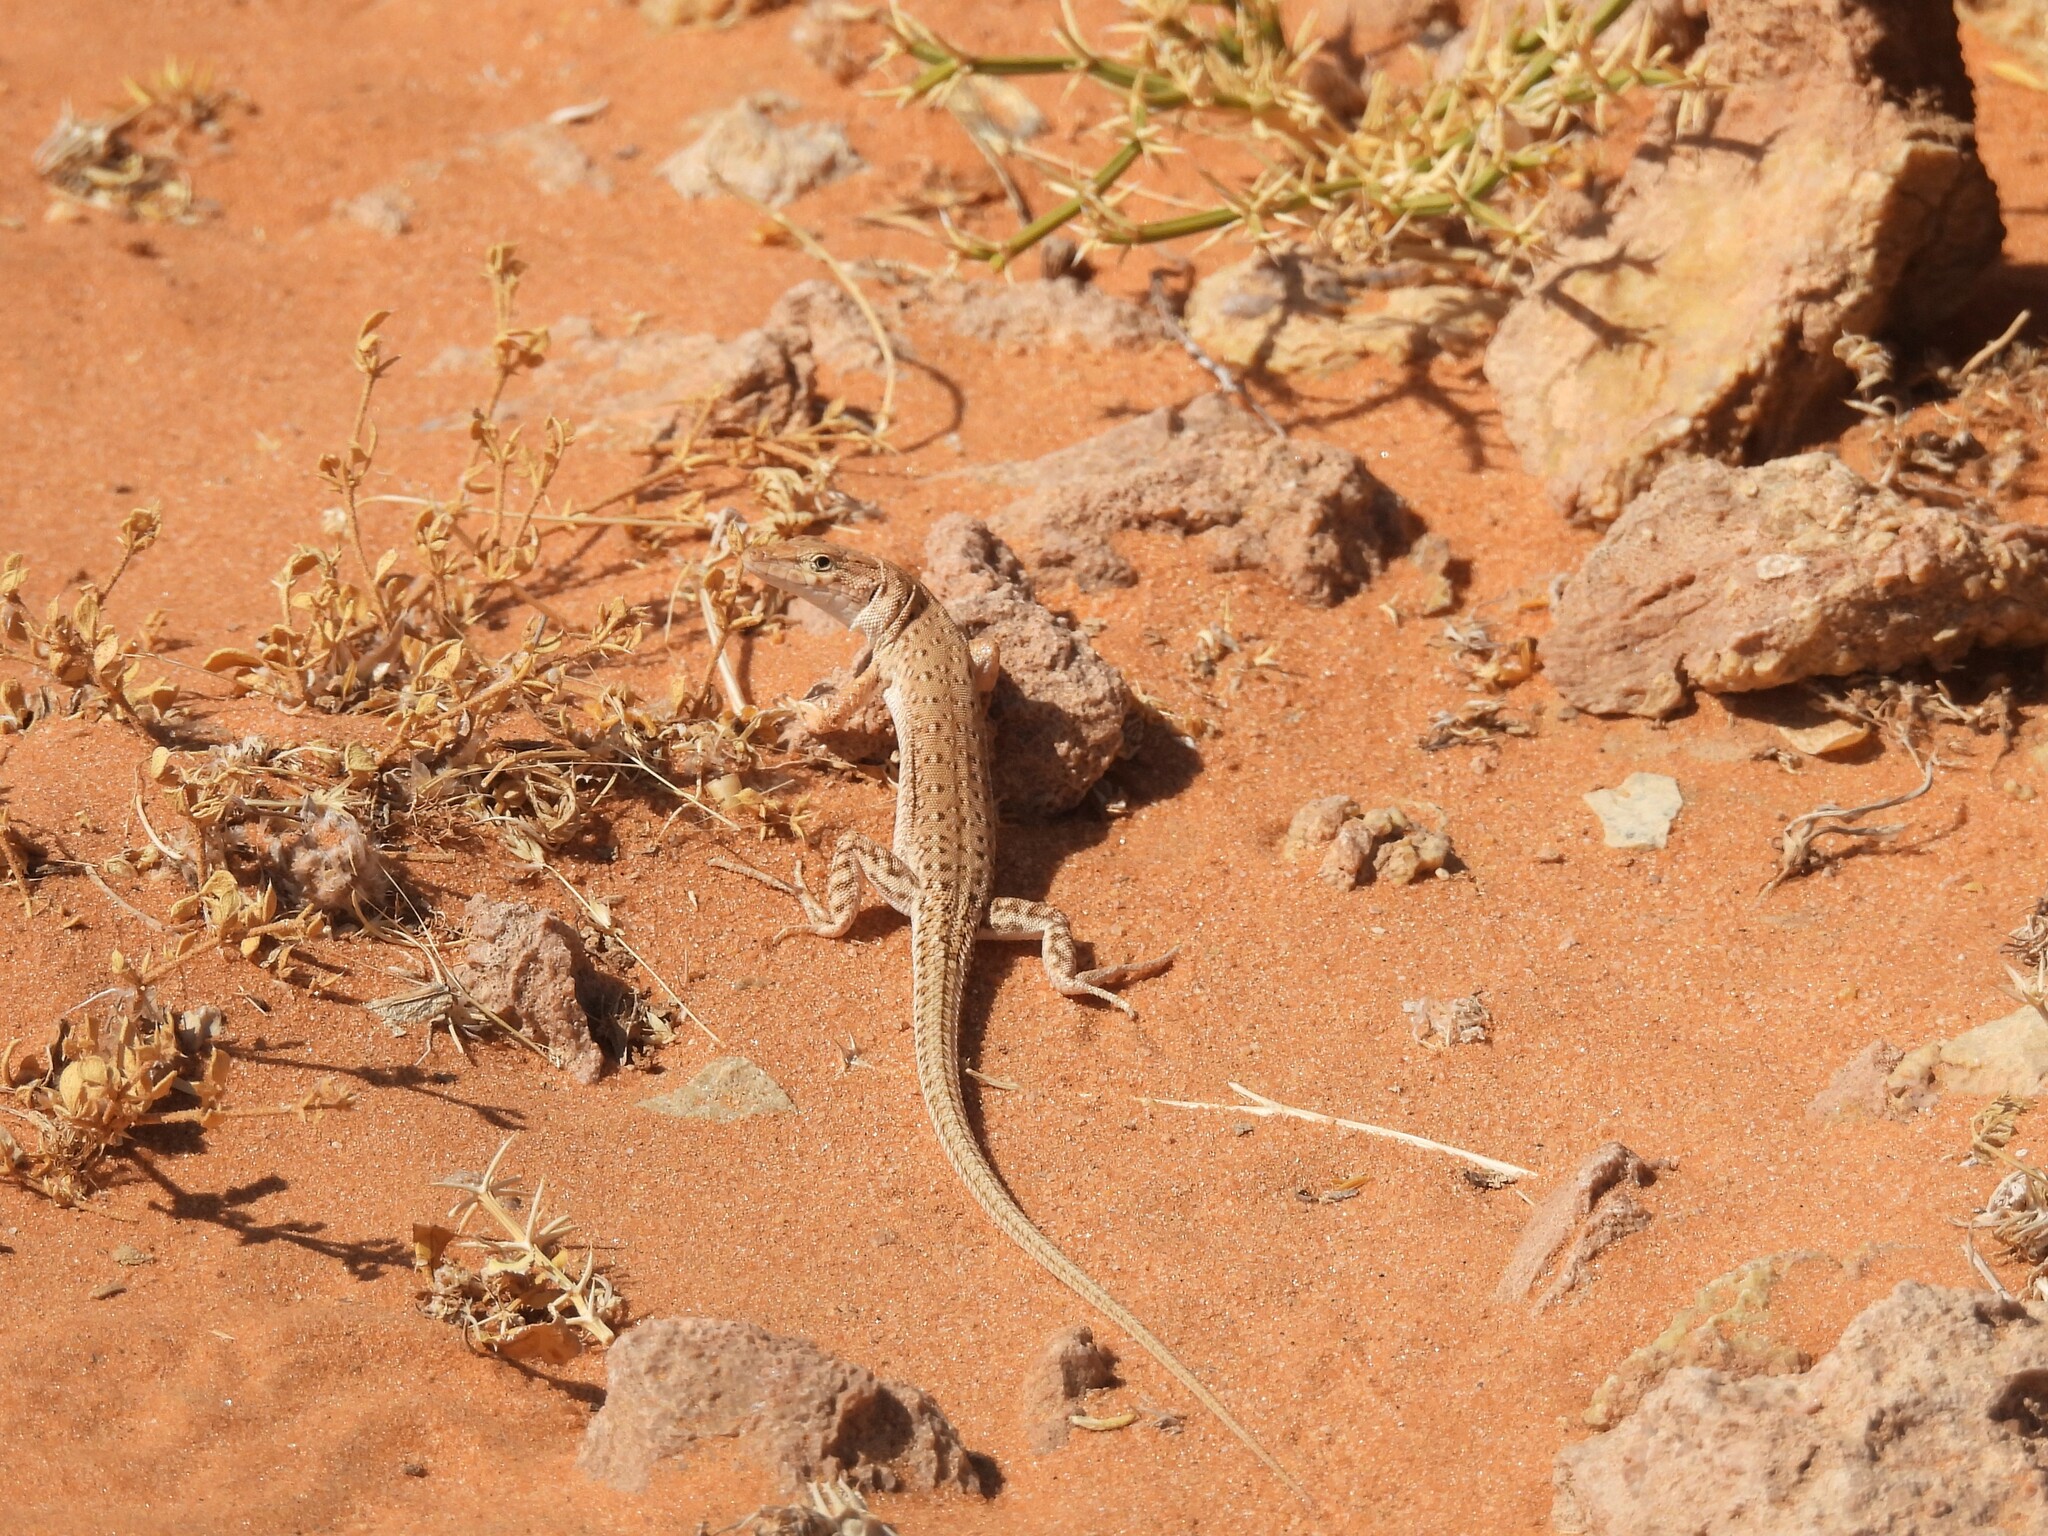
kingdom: Animalia
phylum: Chordata
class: Squamata
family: Lacertidae
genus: Mesalina
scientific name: Mesalina guttulata
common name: Desert lacerta
